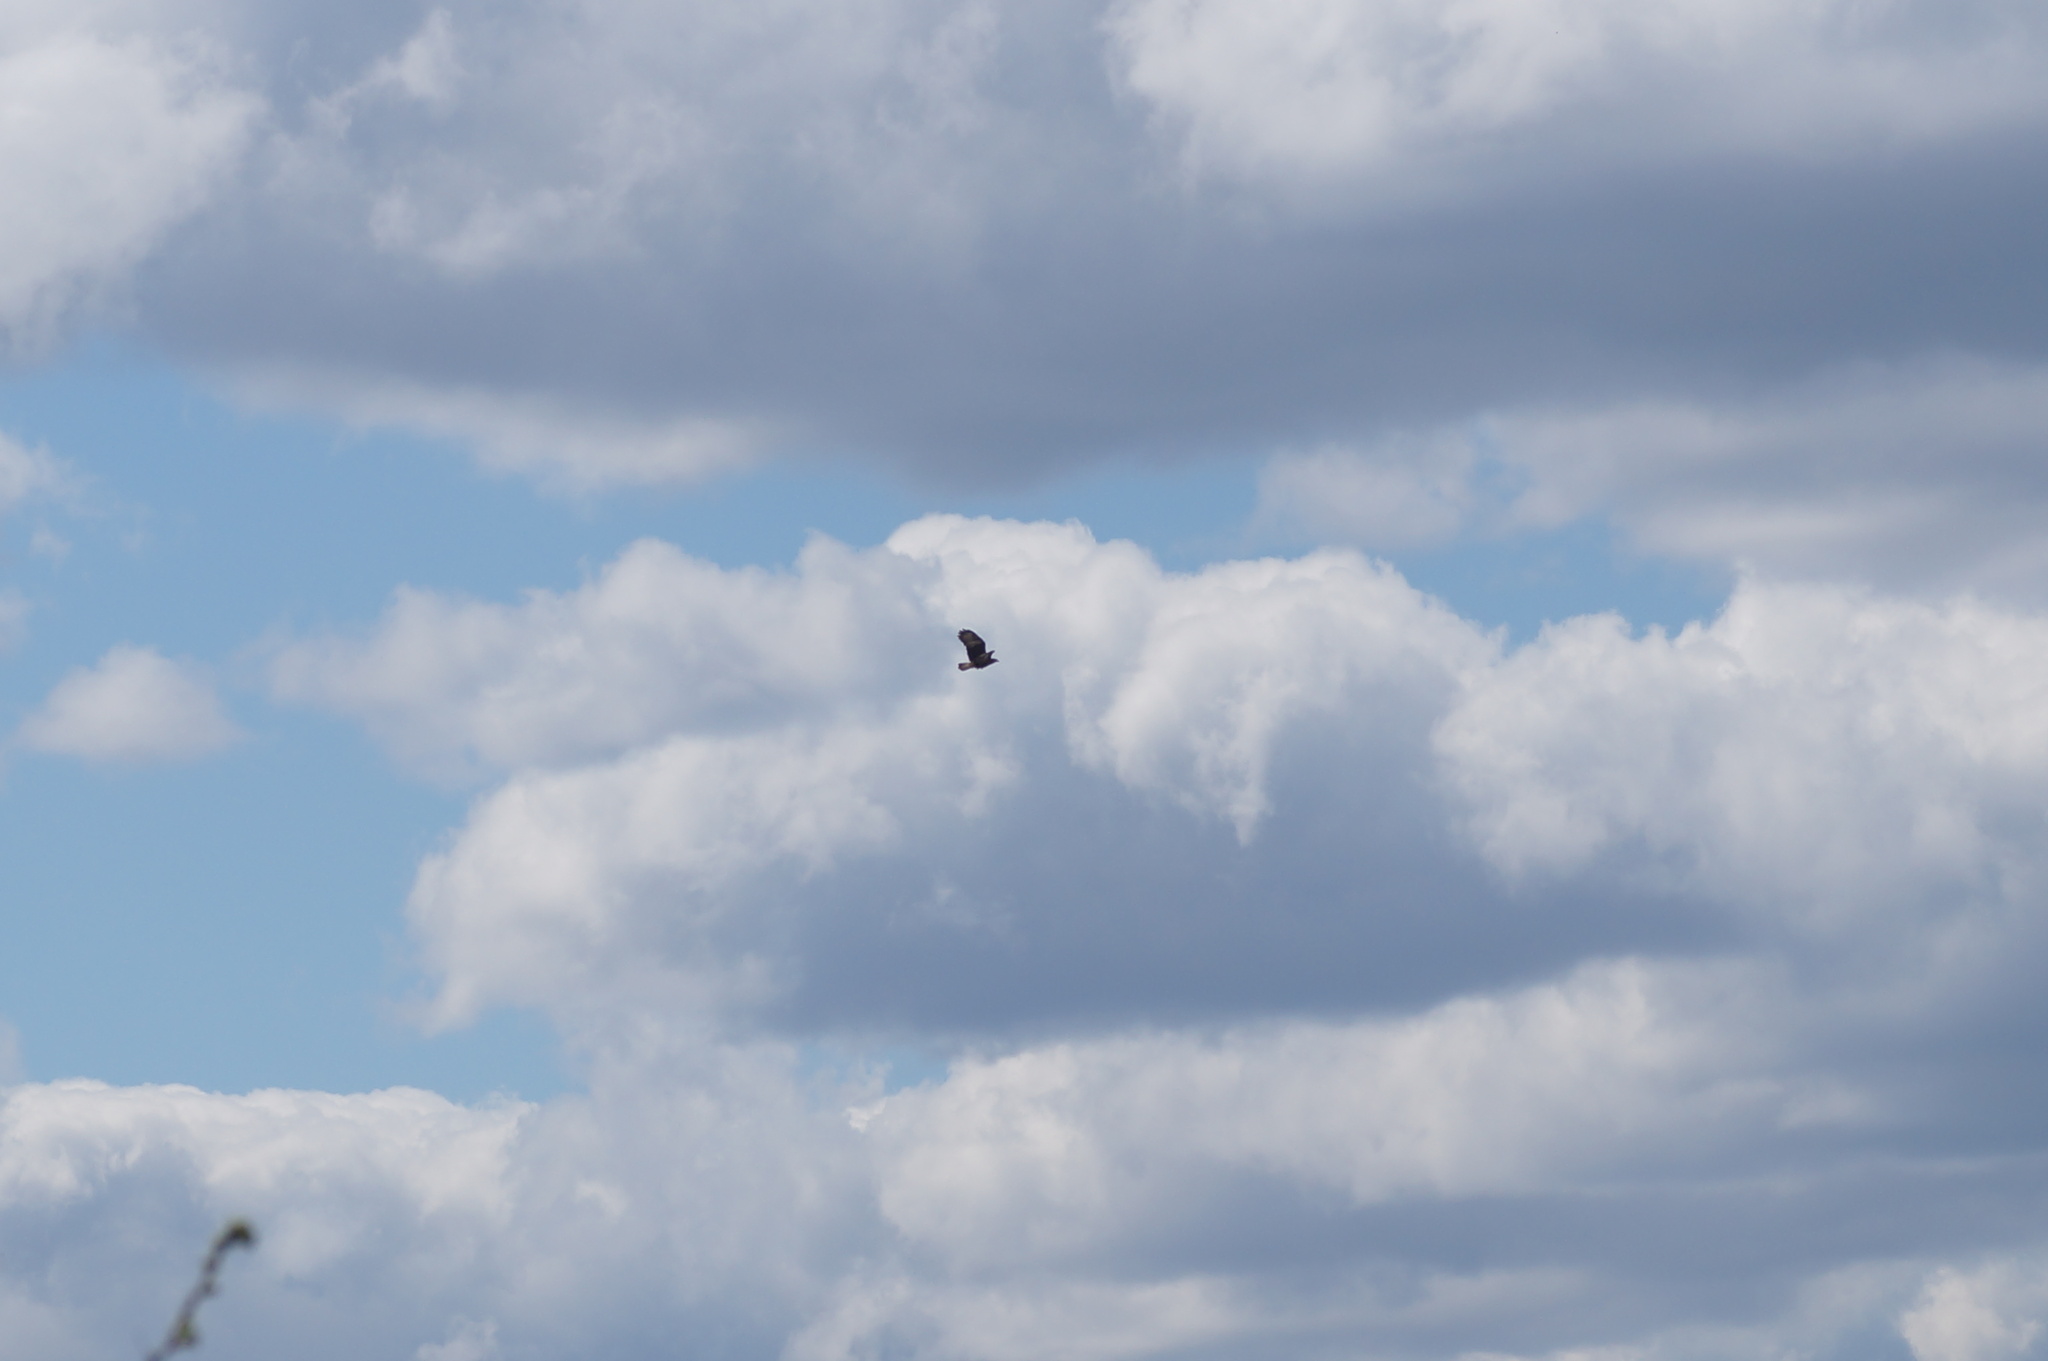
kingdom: Animalia
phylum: Chordata
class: Aves
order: Accipitriformes
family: Accipitridae
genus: Buteo
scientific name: Buteo buteo
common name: Common buzzard
